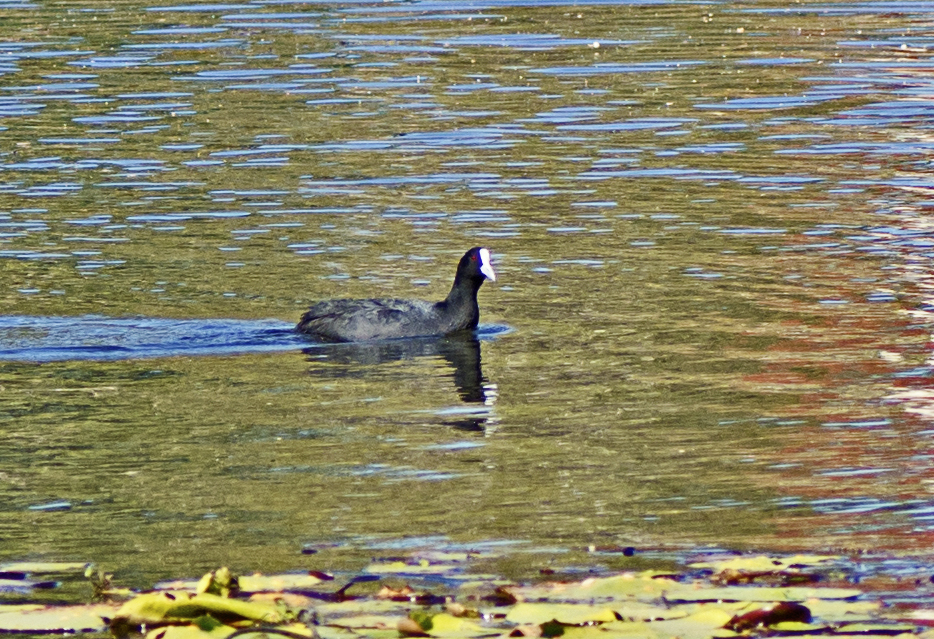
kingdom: Animalia
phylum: Chordata
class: Aves
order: Gruiformes
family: Rallidae
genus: Fulica
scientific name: Fulica atra
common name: Eurasian coot
